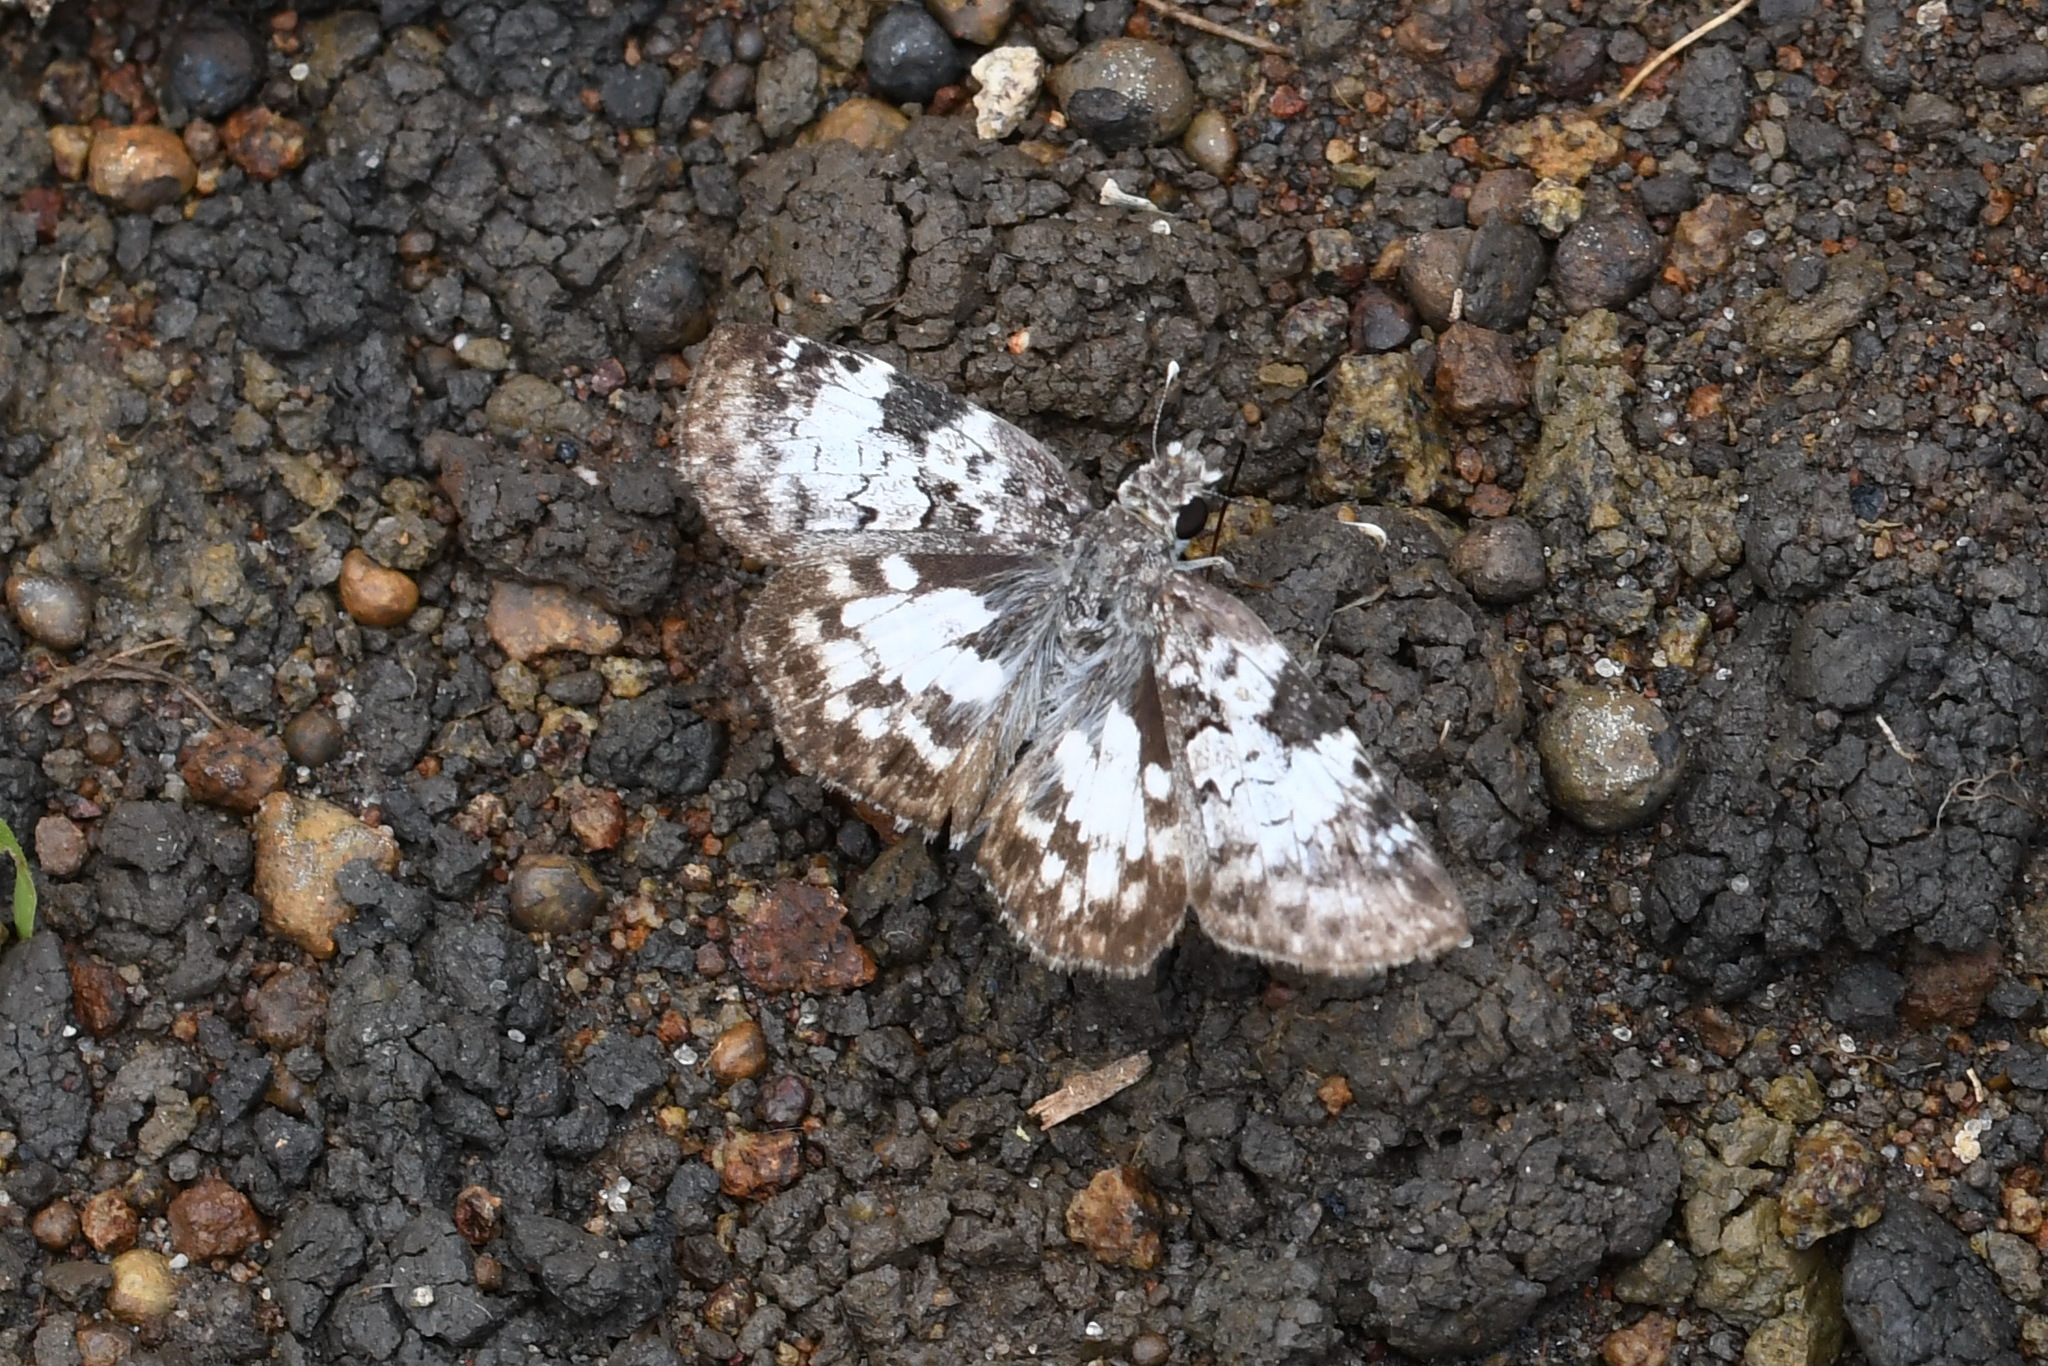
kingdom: Animalia
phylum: Arthropoda
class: Insecta
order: Lepidoptera
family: Hesperiidae
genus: Chiomara
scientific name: Chiomara asychis
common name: White-patterned skipper
